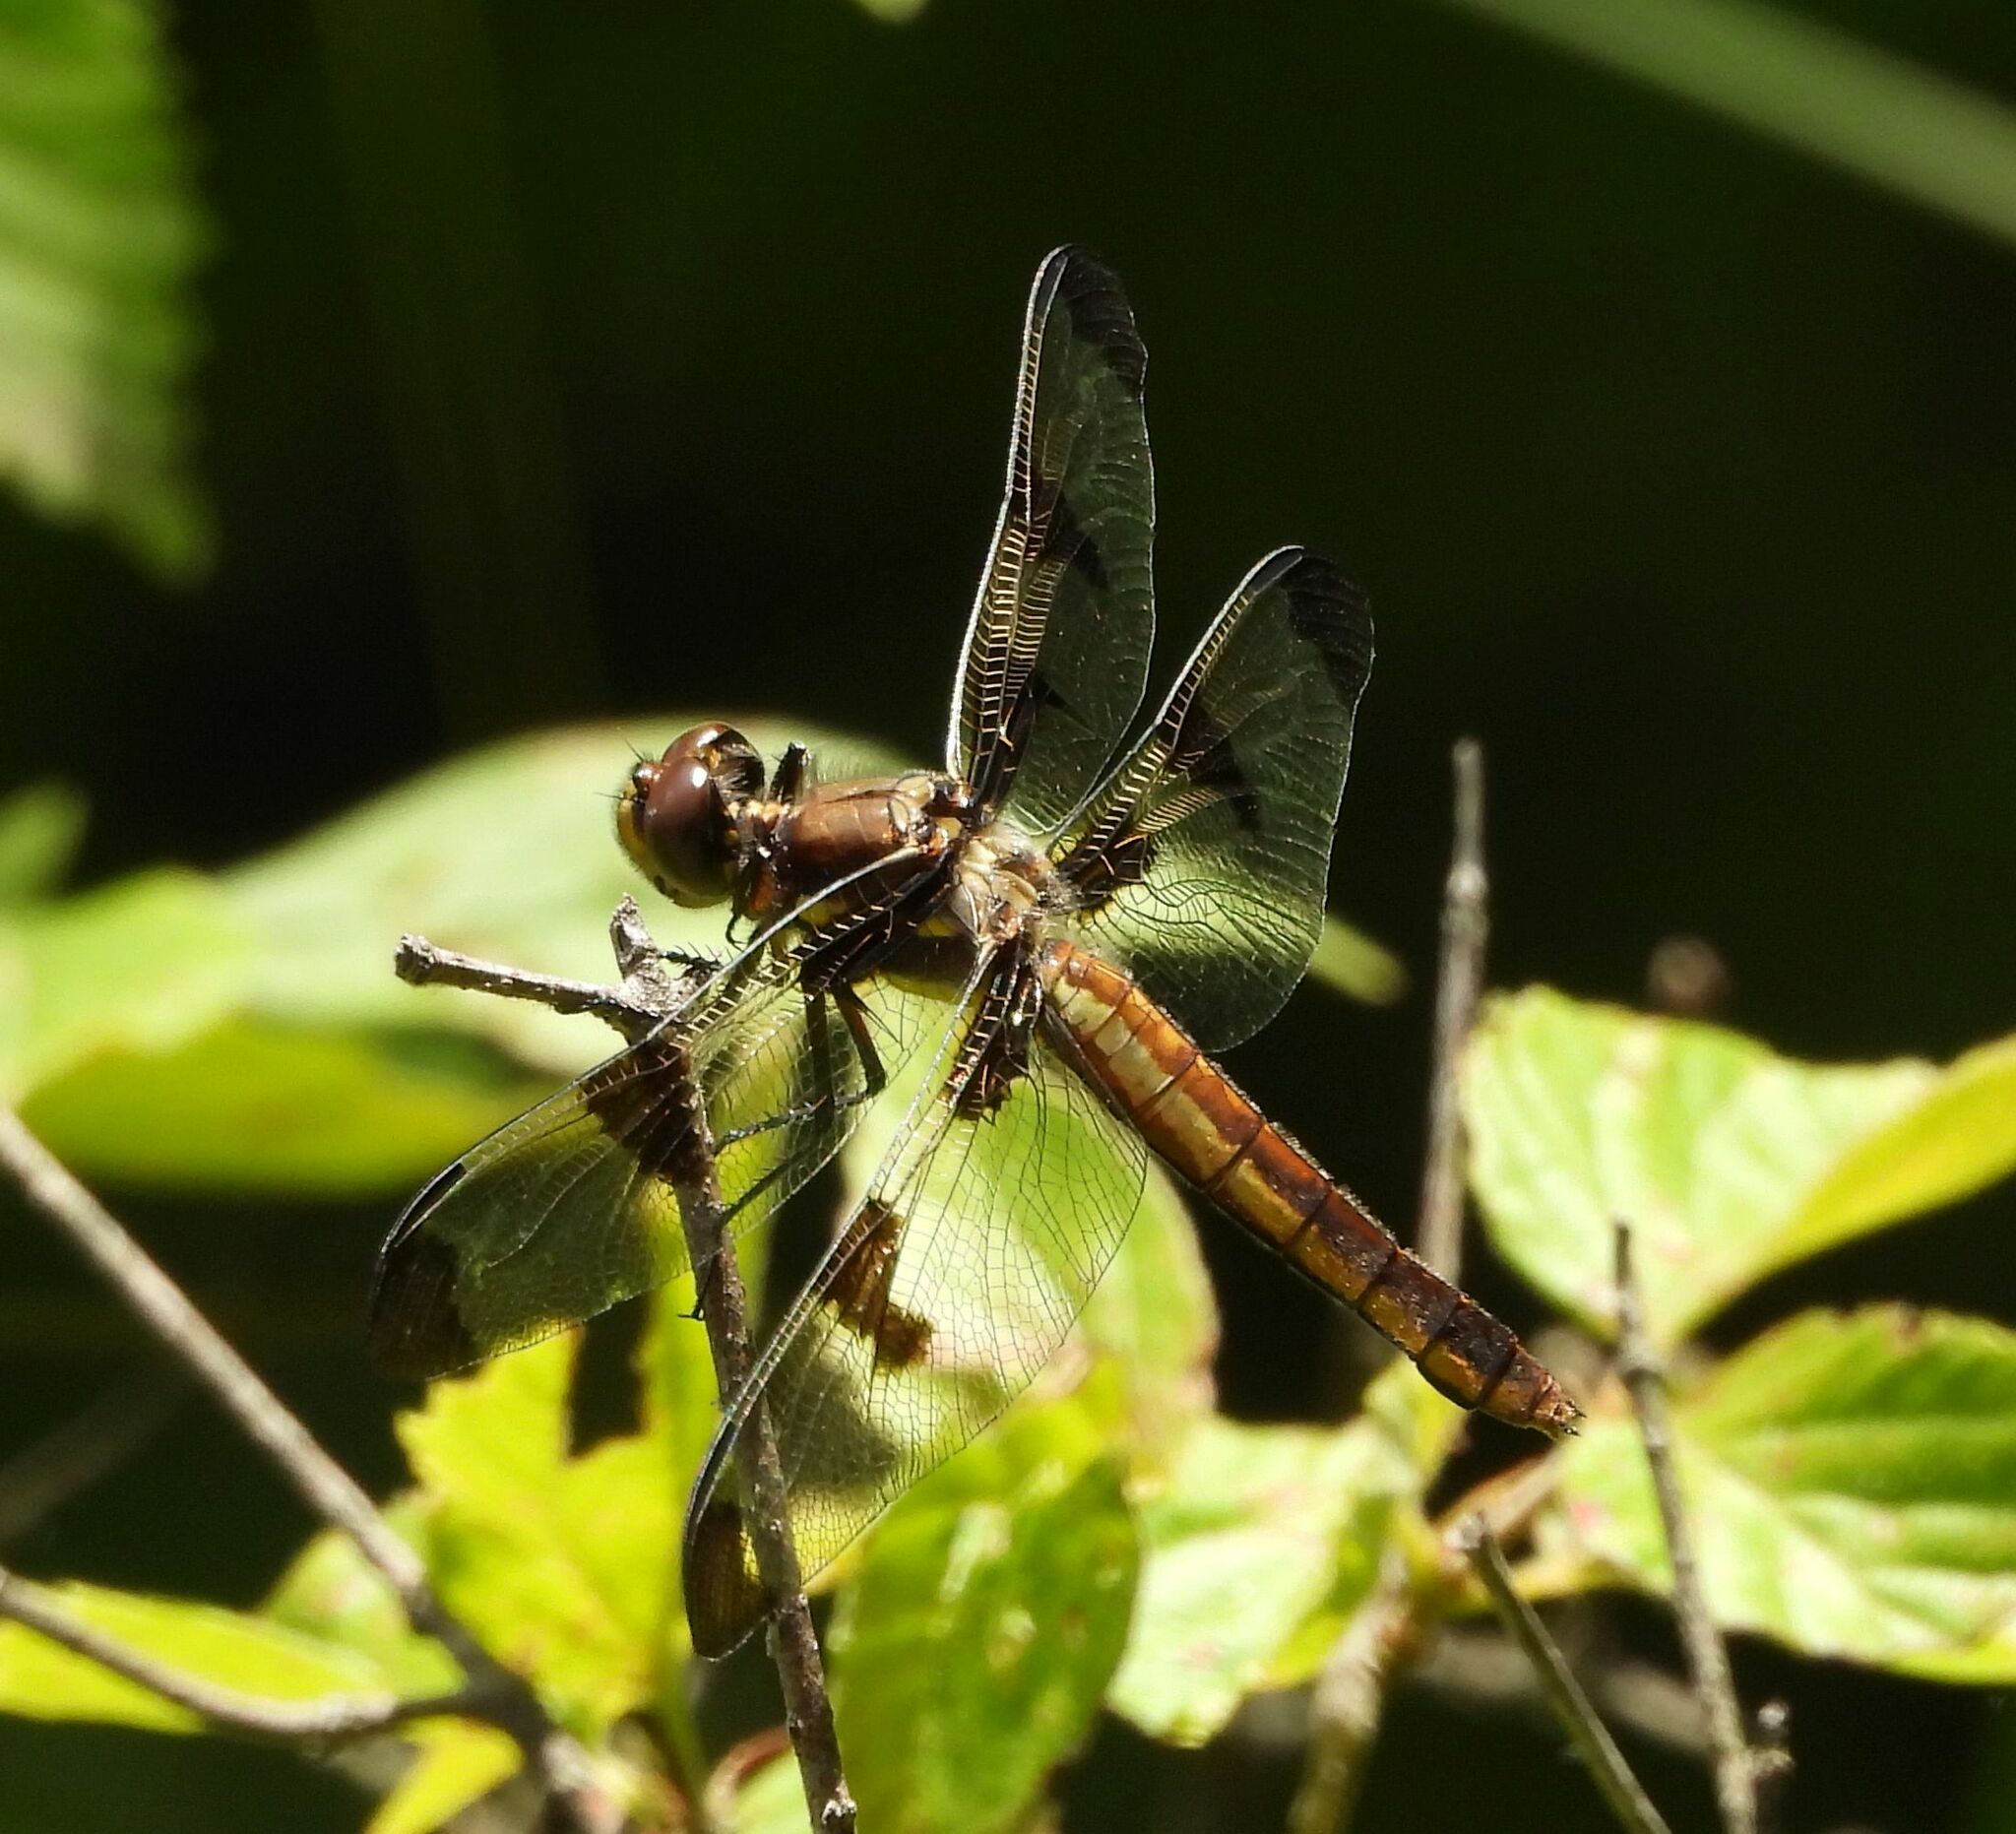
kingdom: Animalia
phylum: Arthropoda
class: Insecta
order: Odonata
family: Libellulidae
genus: Libellula
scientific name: Libellula pulchella
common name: Twelve-spotted skimmer
